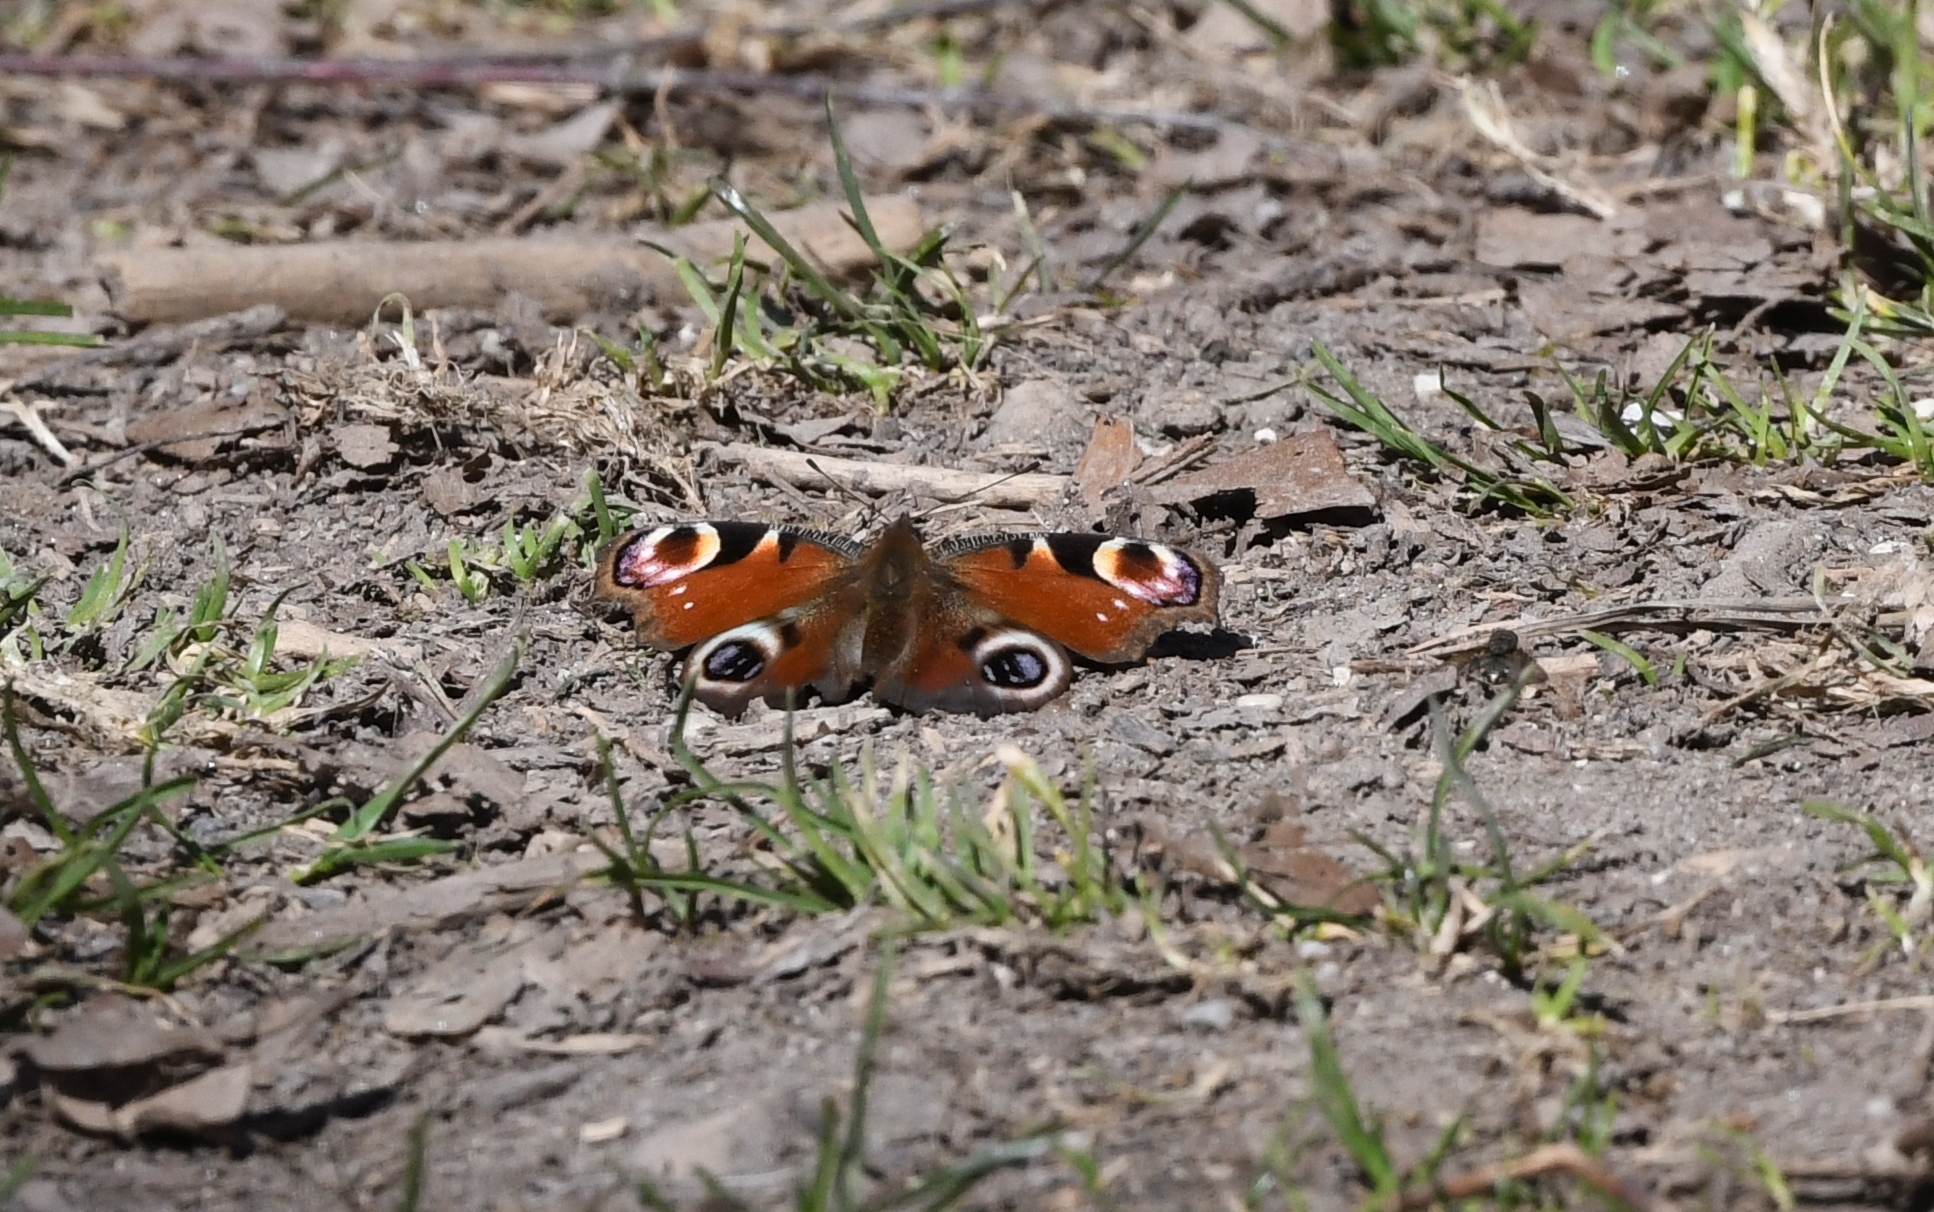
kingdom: Animalia
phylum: Arthropoda
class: Insecta
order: Lepidoptera
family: Nymphalidae
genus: Aglais
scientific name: Aglais io
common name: Peacock
